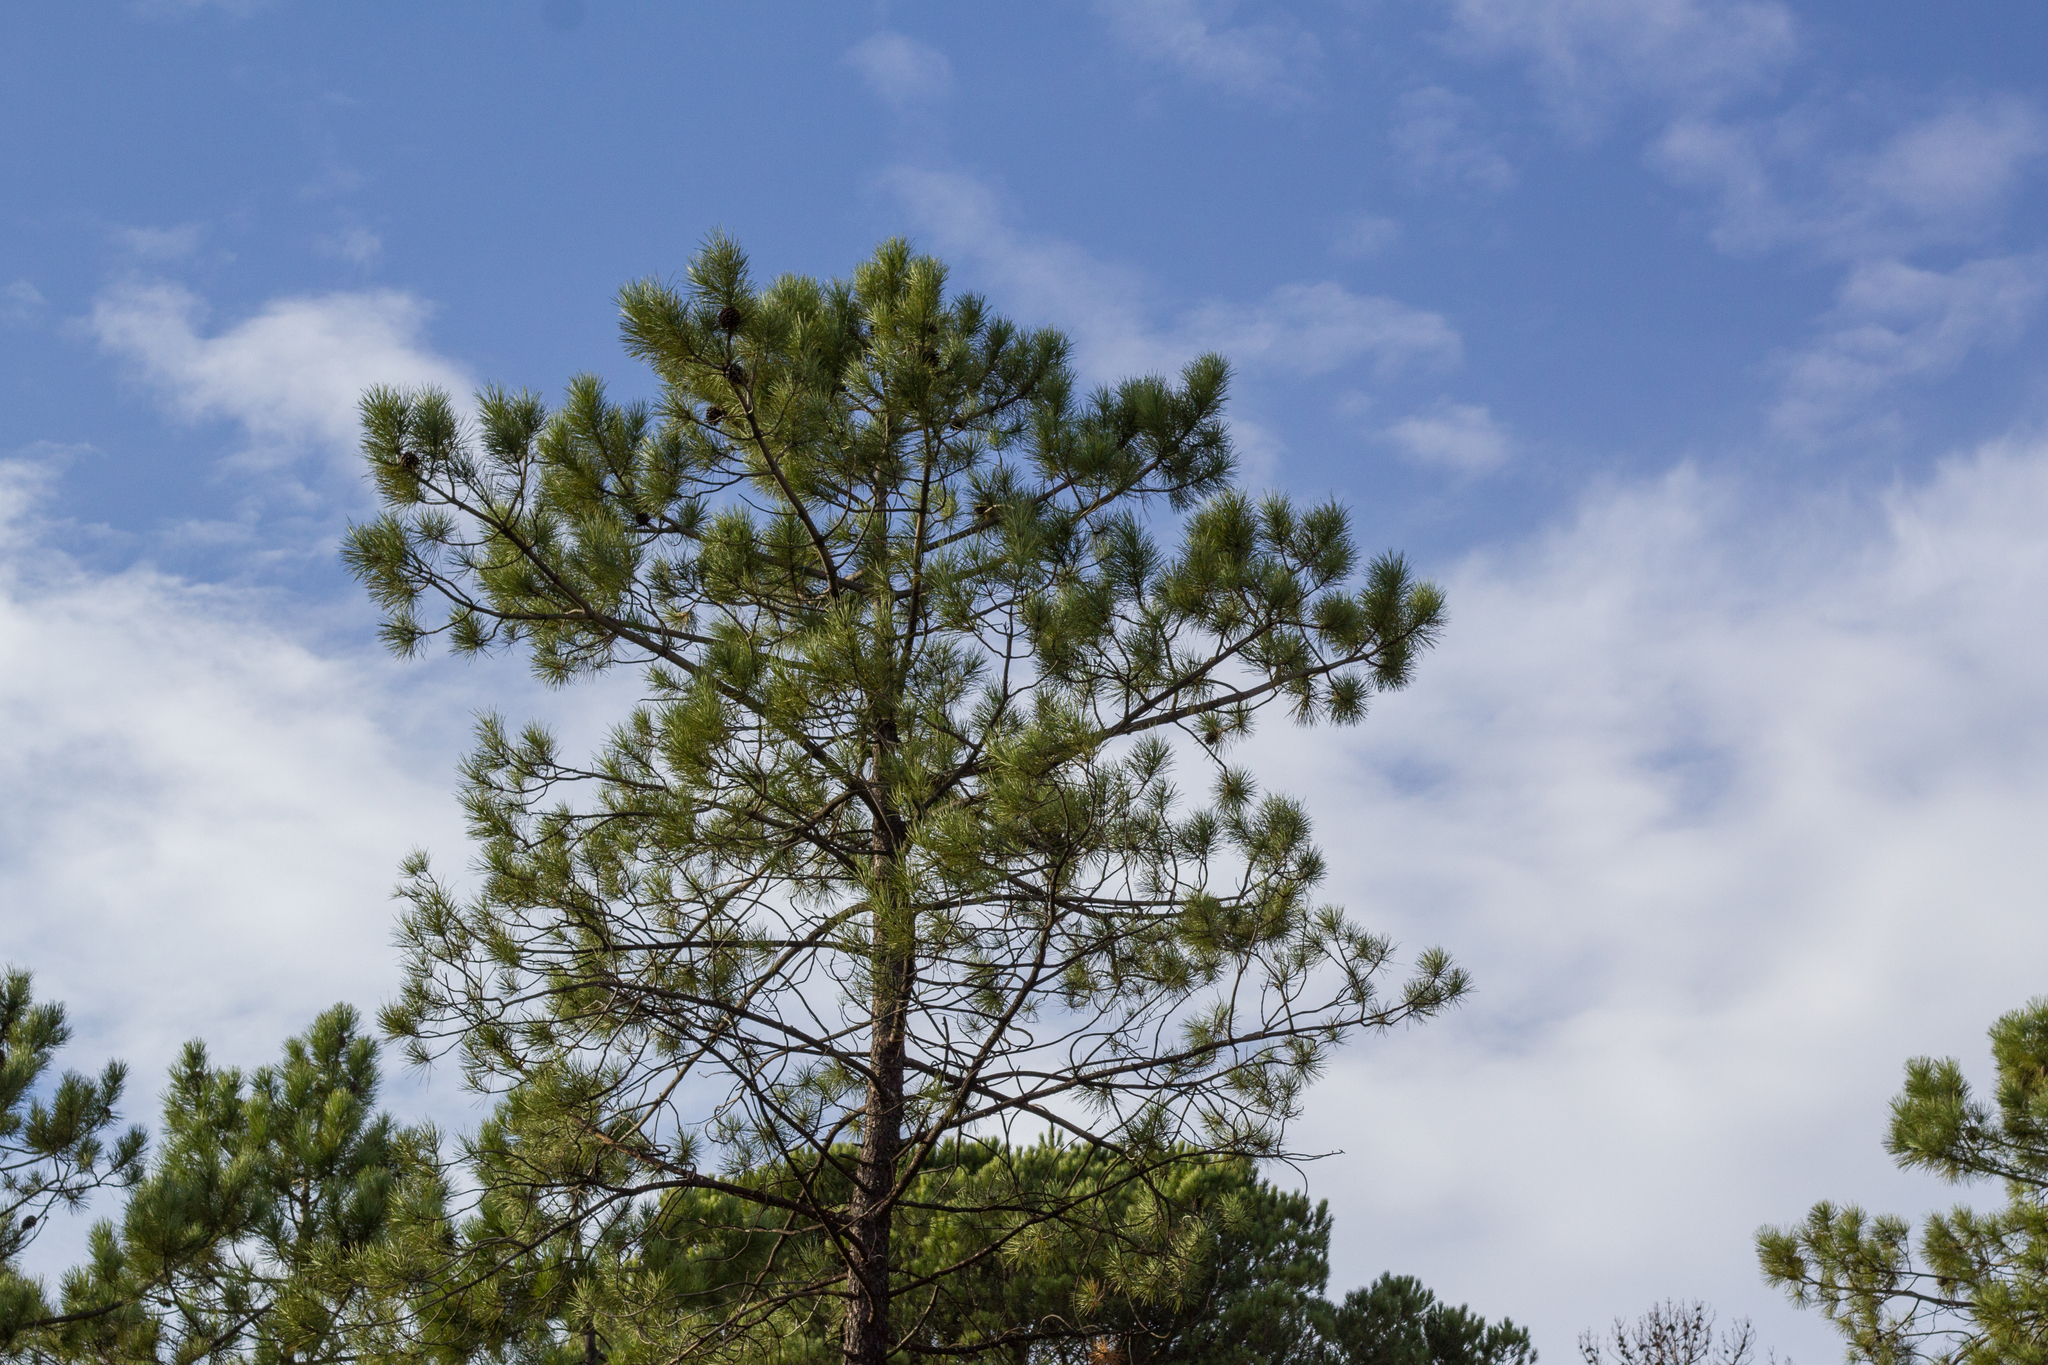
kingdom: Plantae
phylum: Tracheophyta
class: Pinopsida
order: Pinales
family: Pinaceae
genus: Pinus
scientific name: Pinus pinaster
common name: Maritime pine
